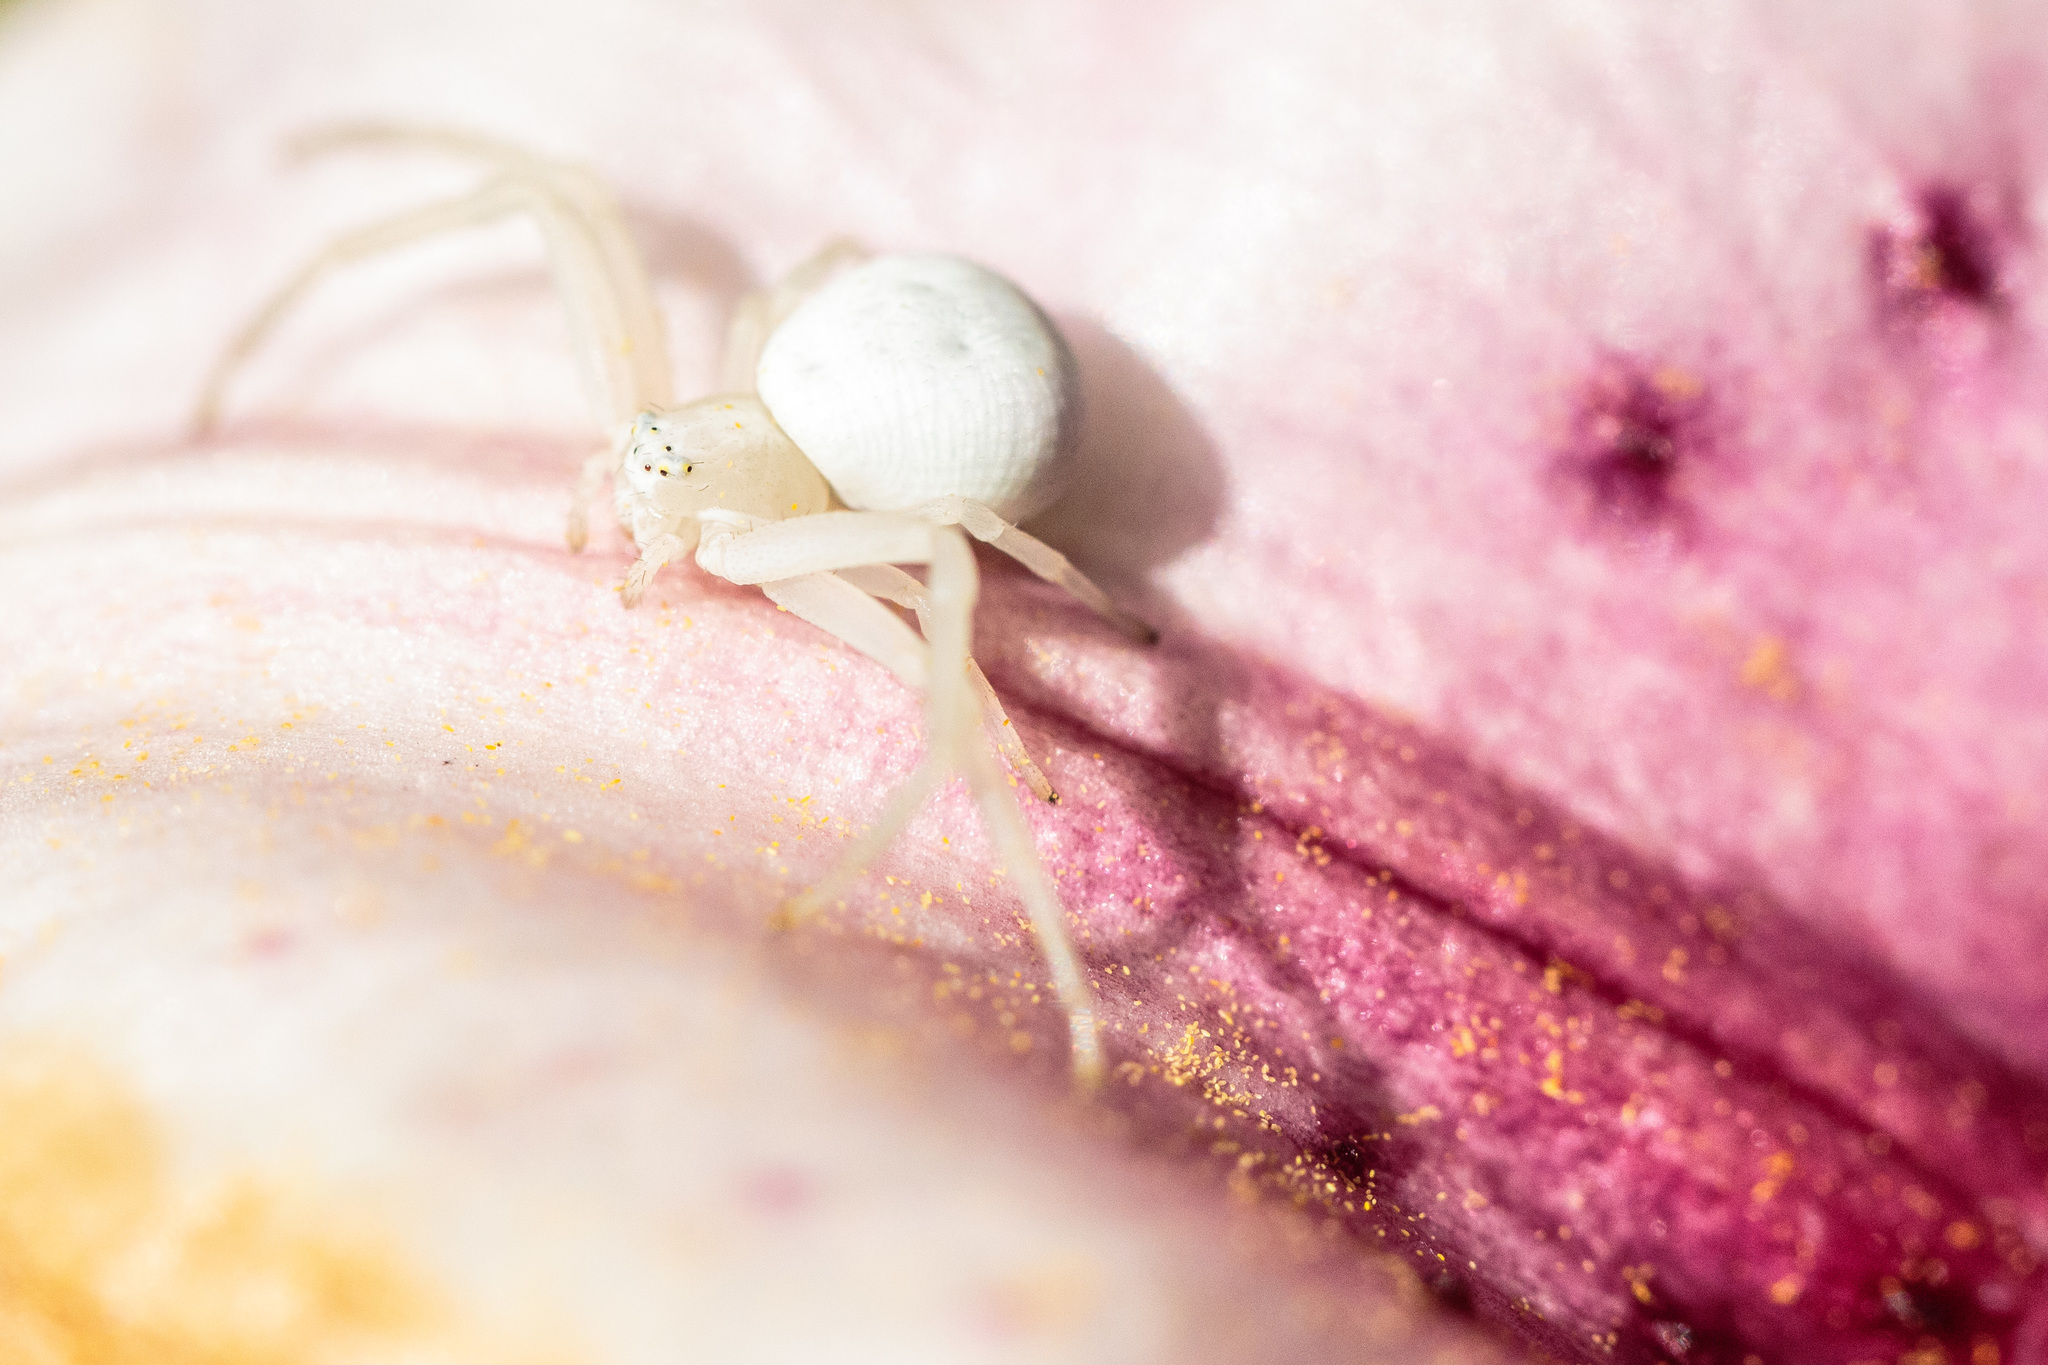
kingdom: Animalia
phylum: Arthropoda
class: Arachnida
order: Araneae
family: Thomisidae
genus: Misumena
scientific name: Misumena vatia
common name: Goldenrod crab spider
